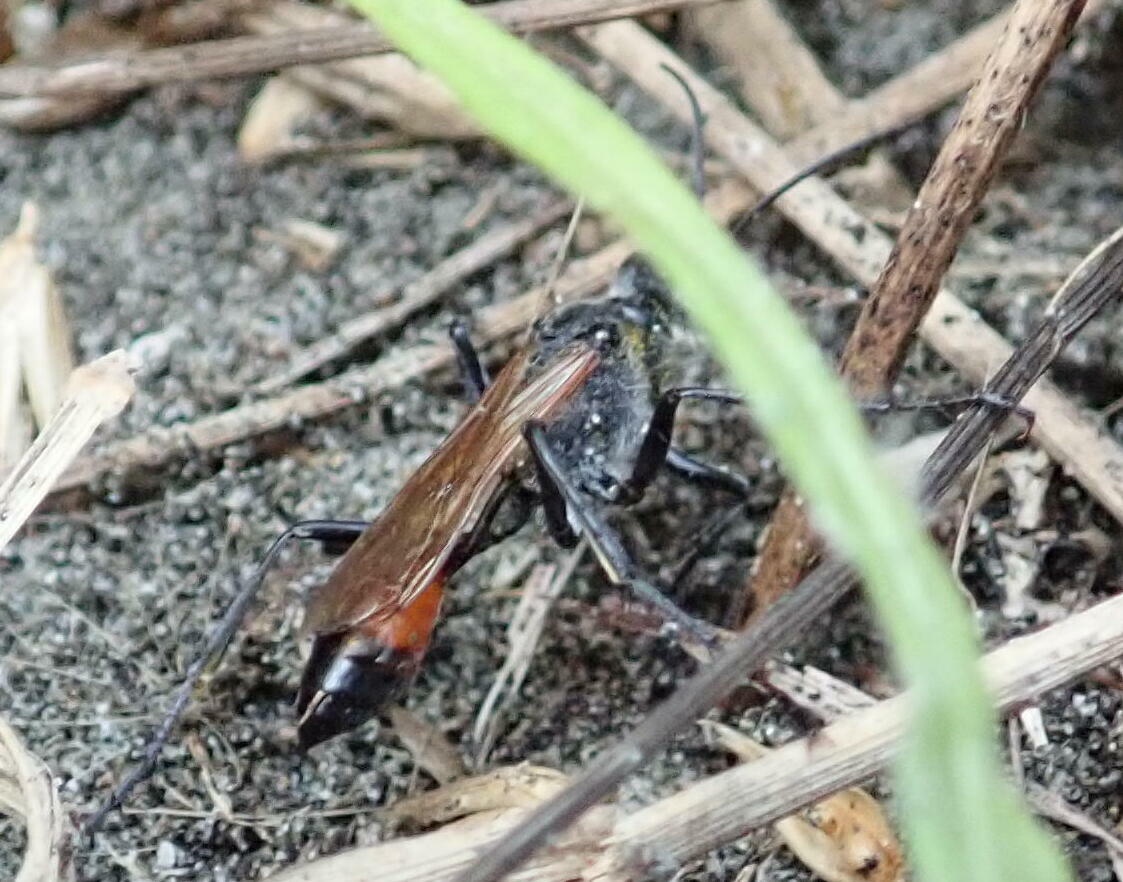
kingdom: Animalia
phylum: Arthropoda
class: Insecta
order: Hymenoptera
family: Sphecidae
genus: Podalonia
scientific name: Podalonia tydei
